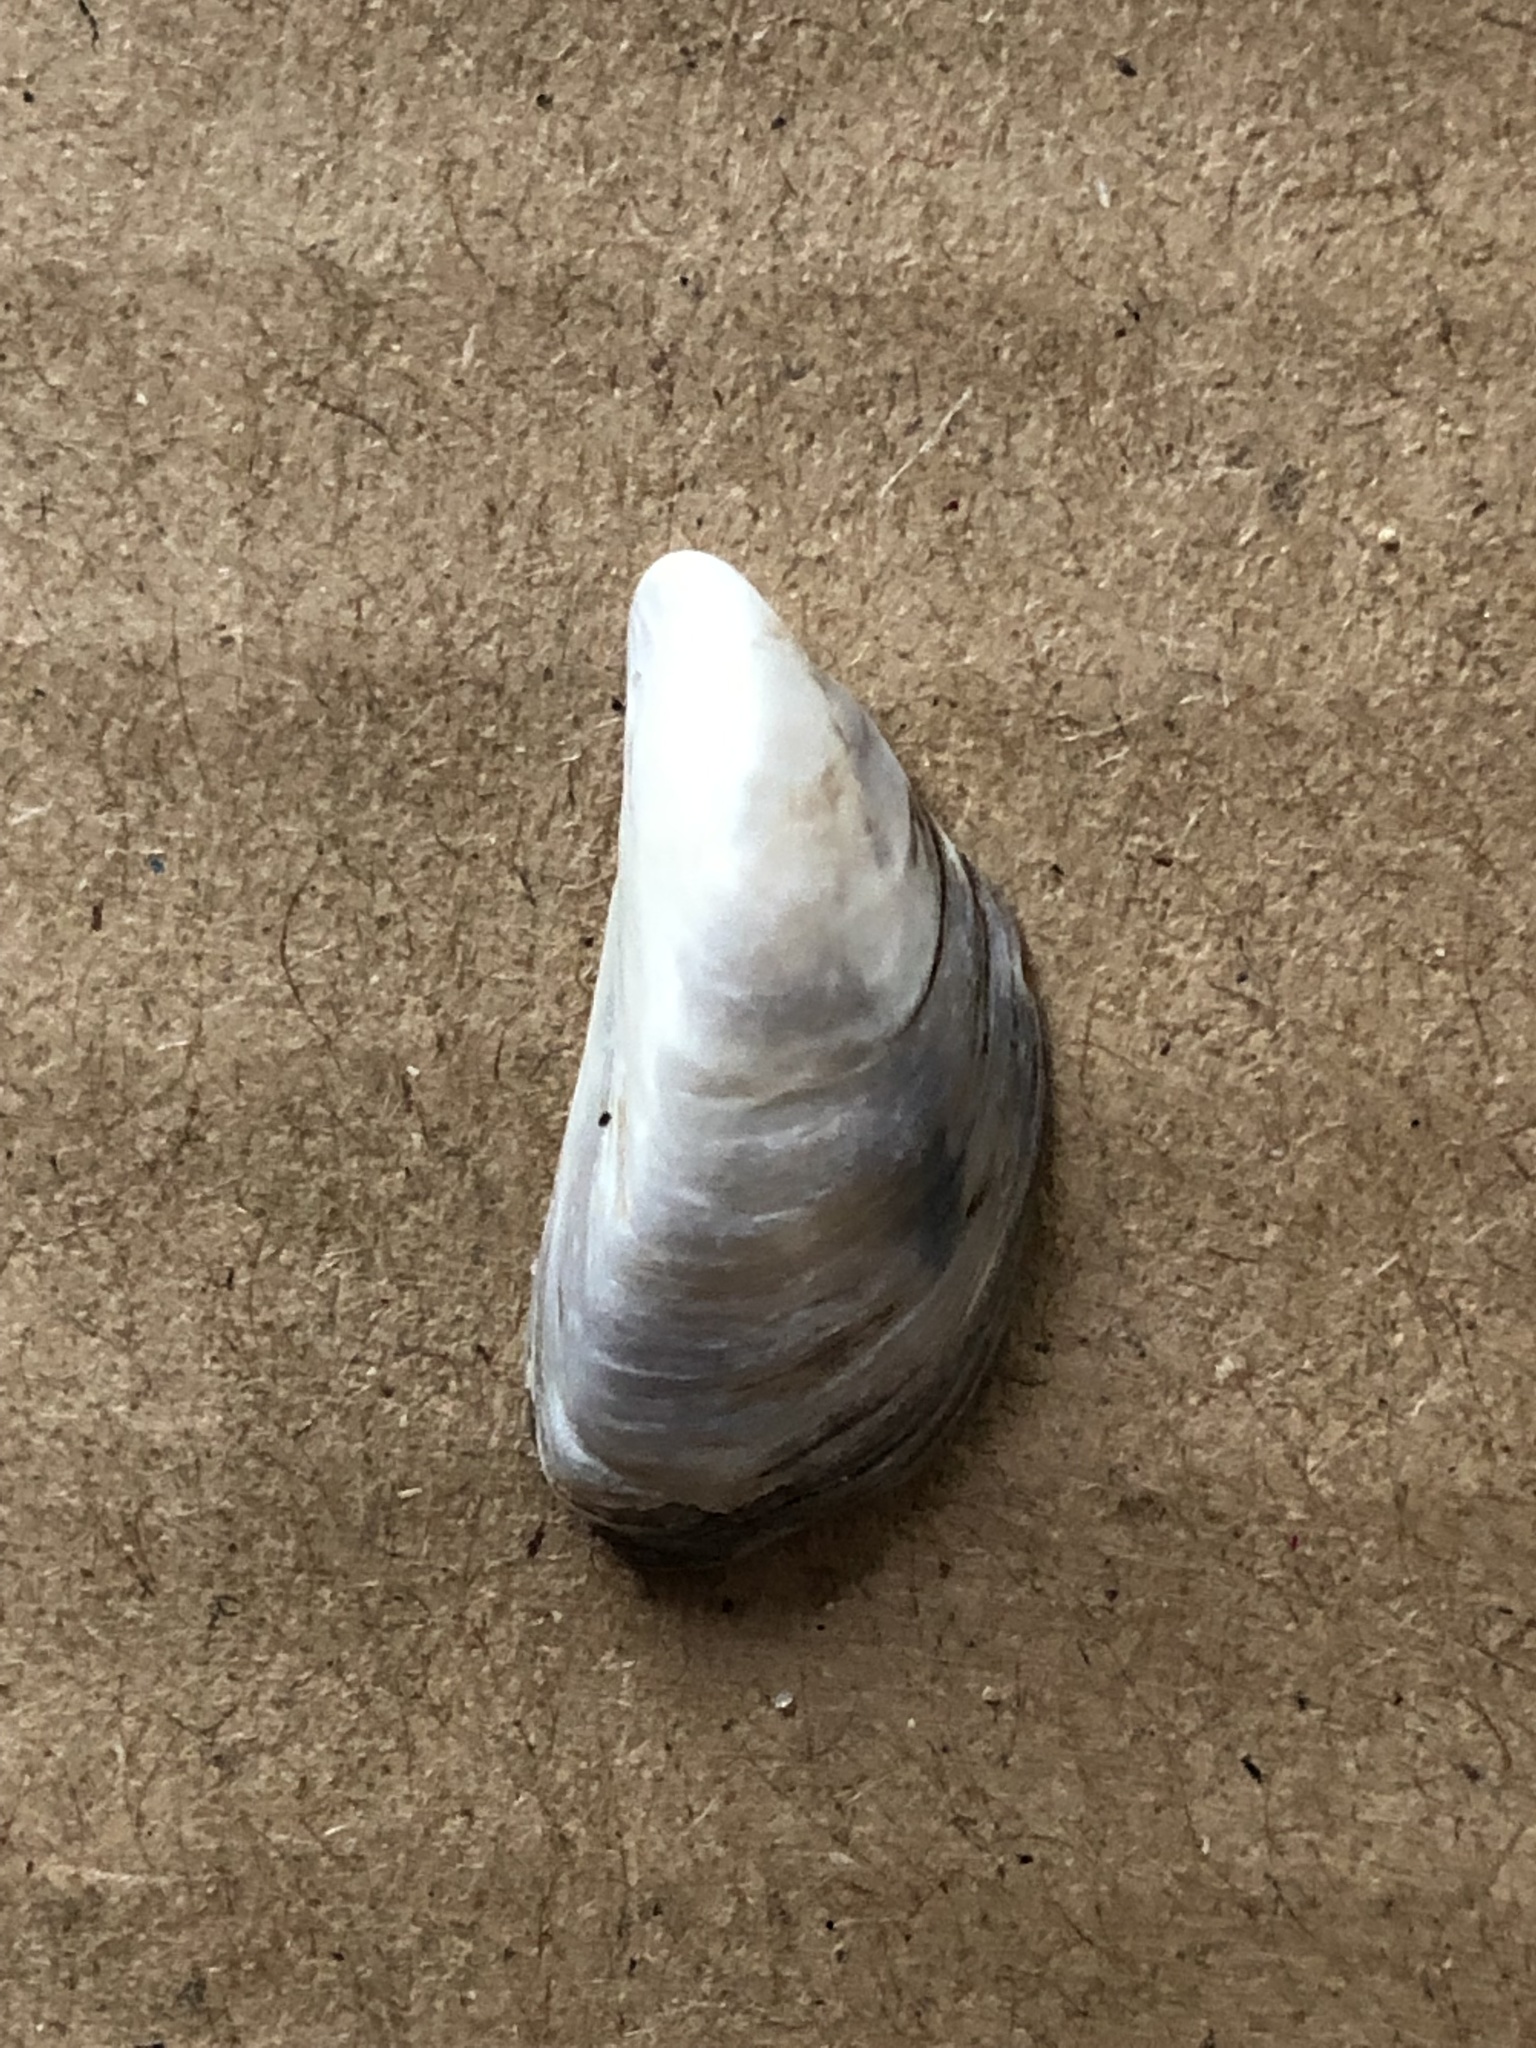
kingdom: Animalia
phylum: Mollusca
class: Bivalvia
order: Myida
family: Dreissenidae
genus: Dreissena
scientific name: Dreissena polymorpha
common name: Zebra mussel
